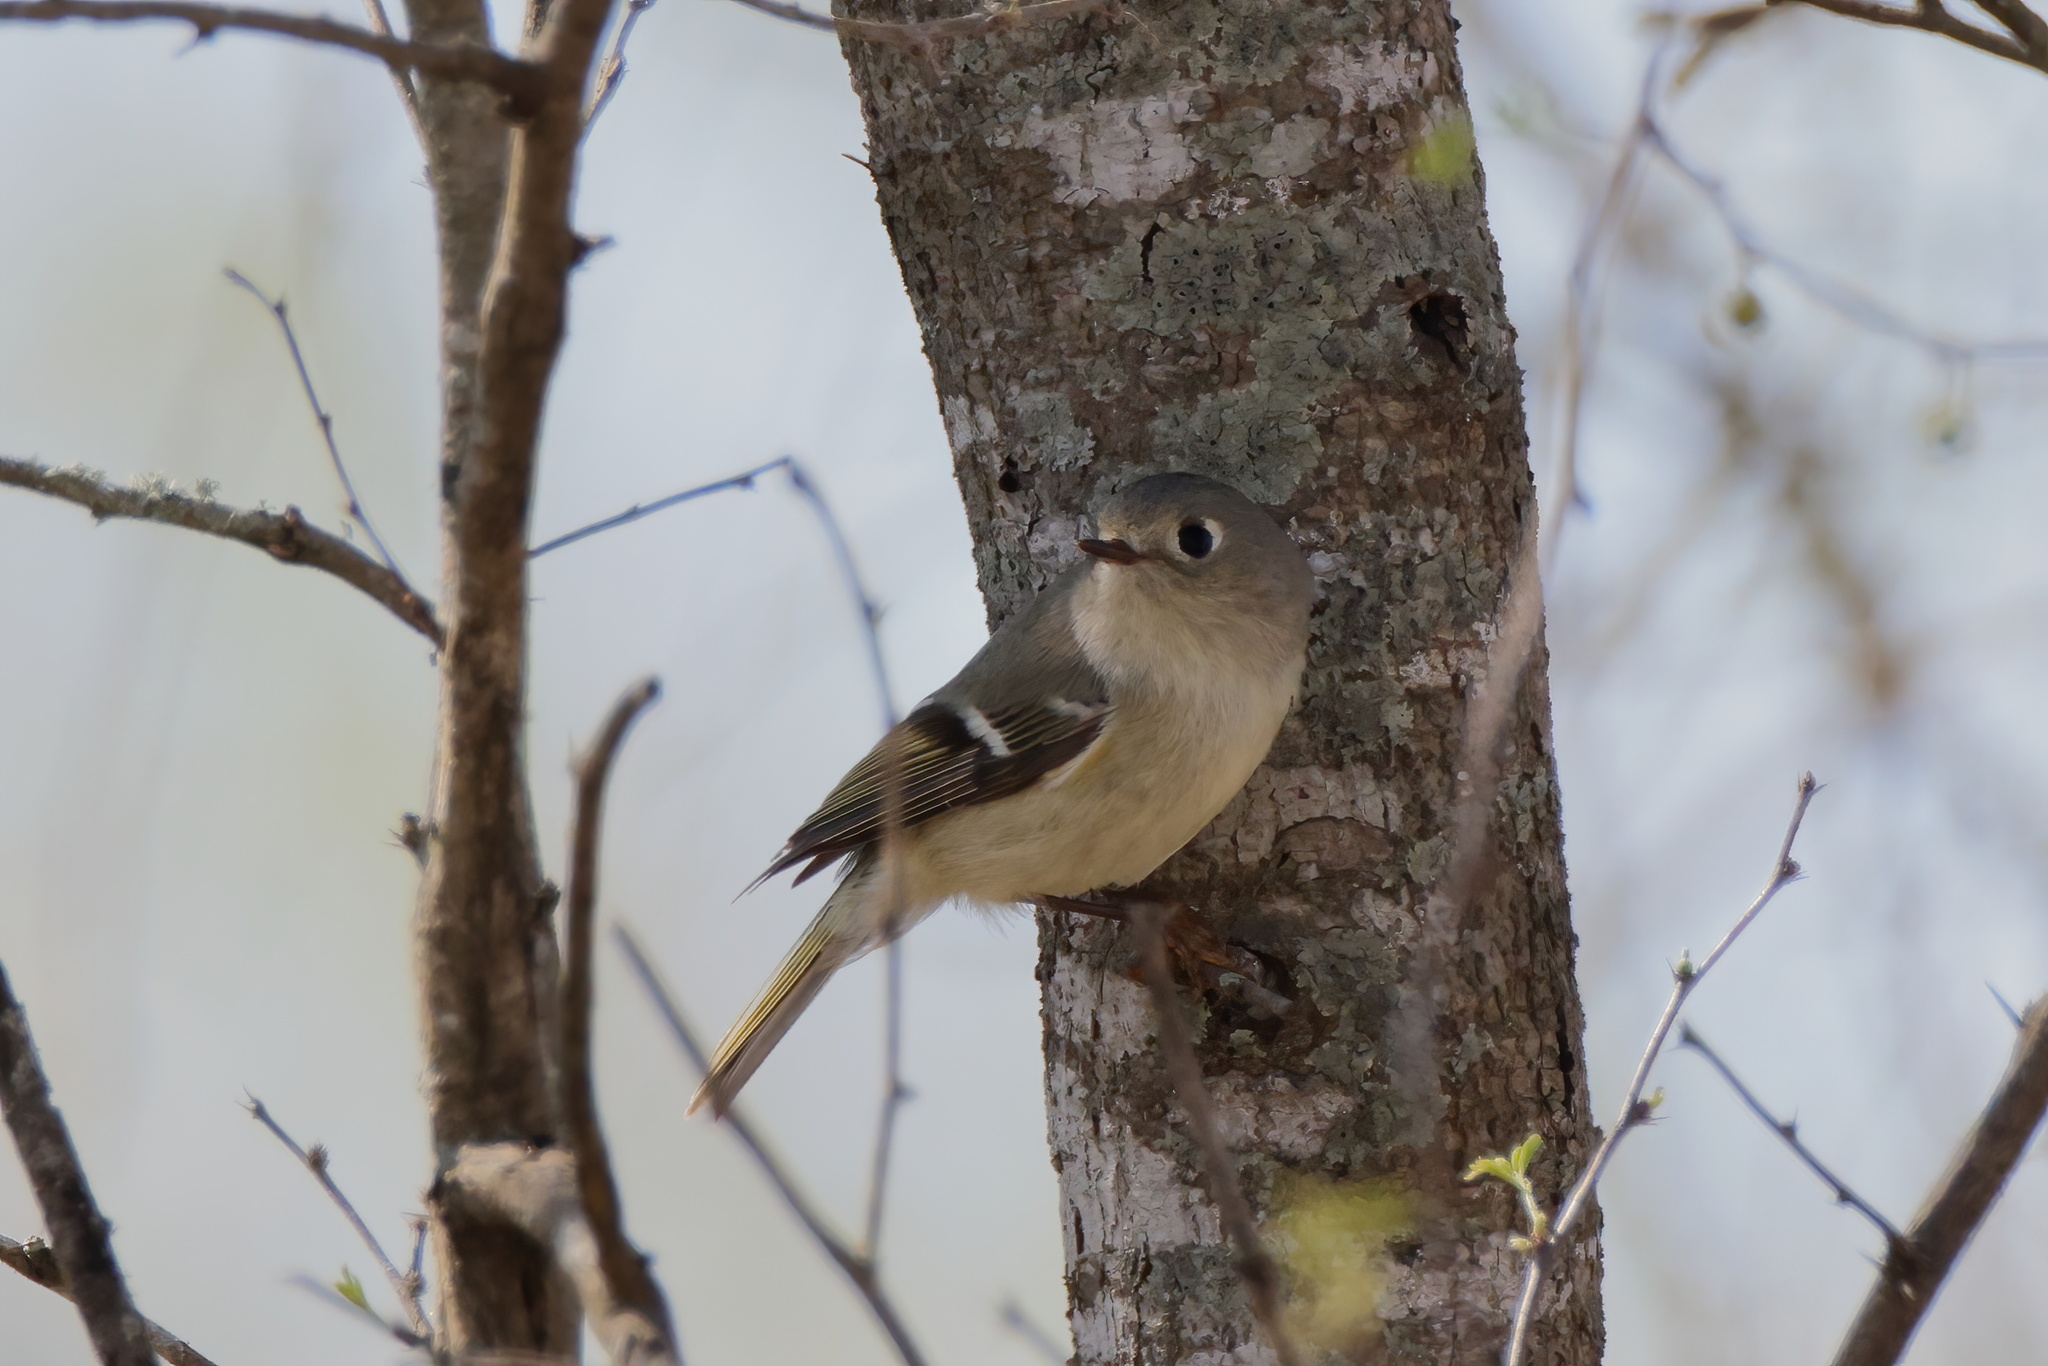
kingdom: Animalia
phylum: Chordata
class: Aves
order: Passeriformes
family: Regulidae
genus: Regulus
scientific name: Regulus calendula
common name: Ruby-crowned kinglet
